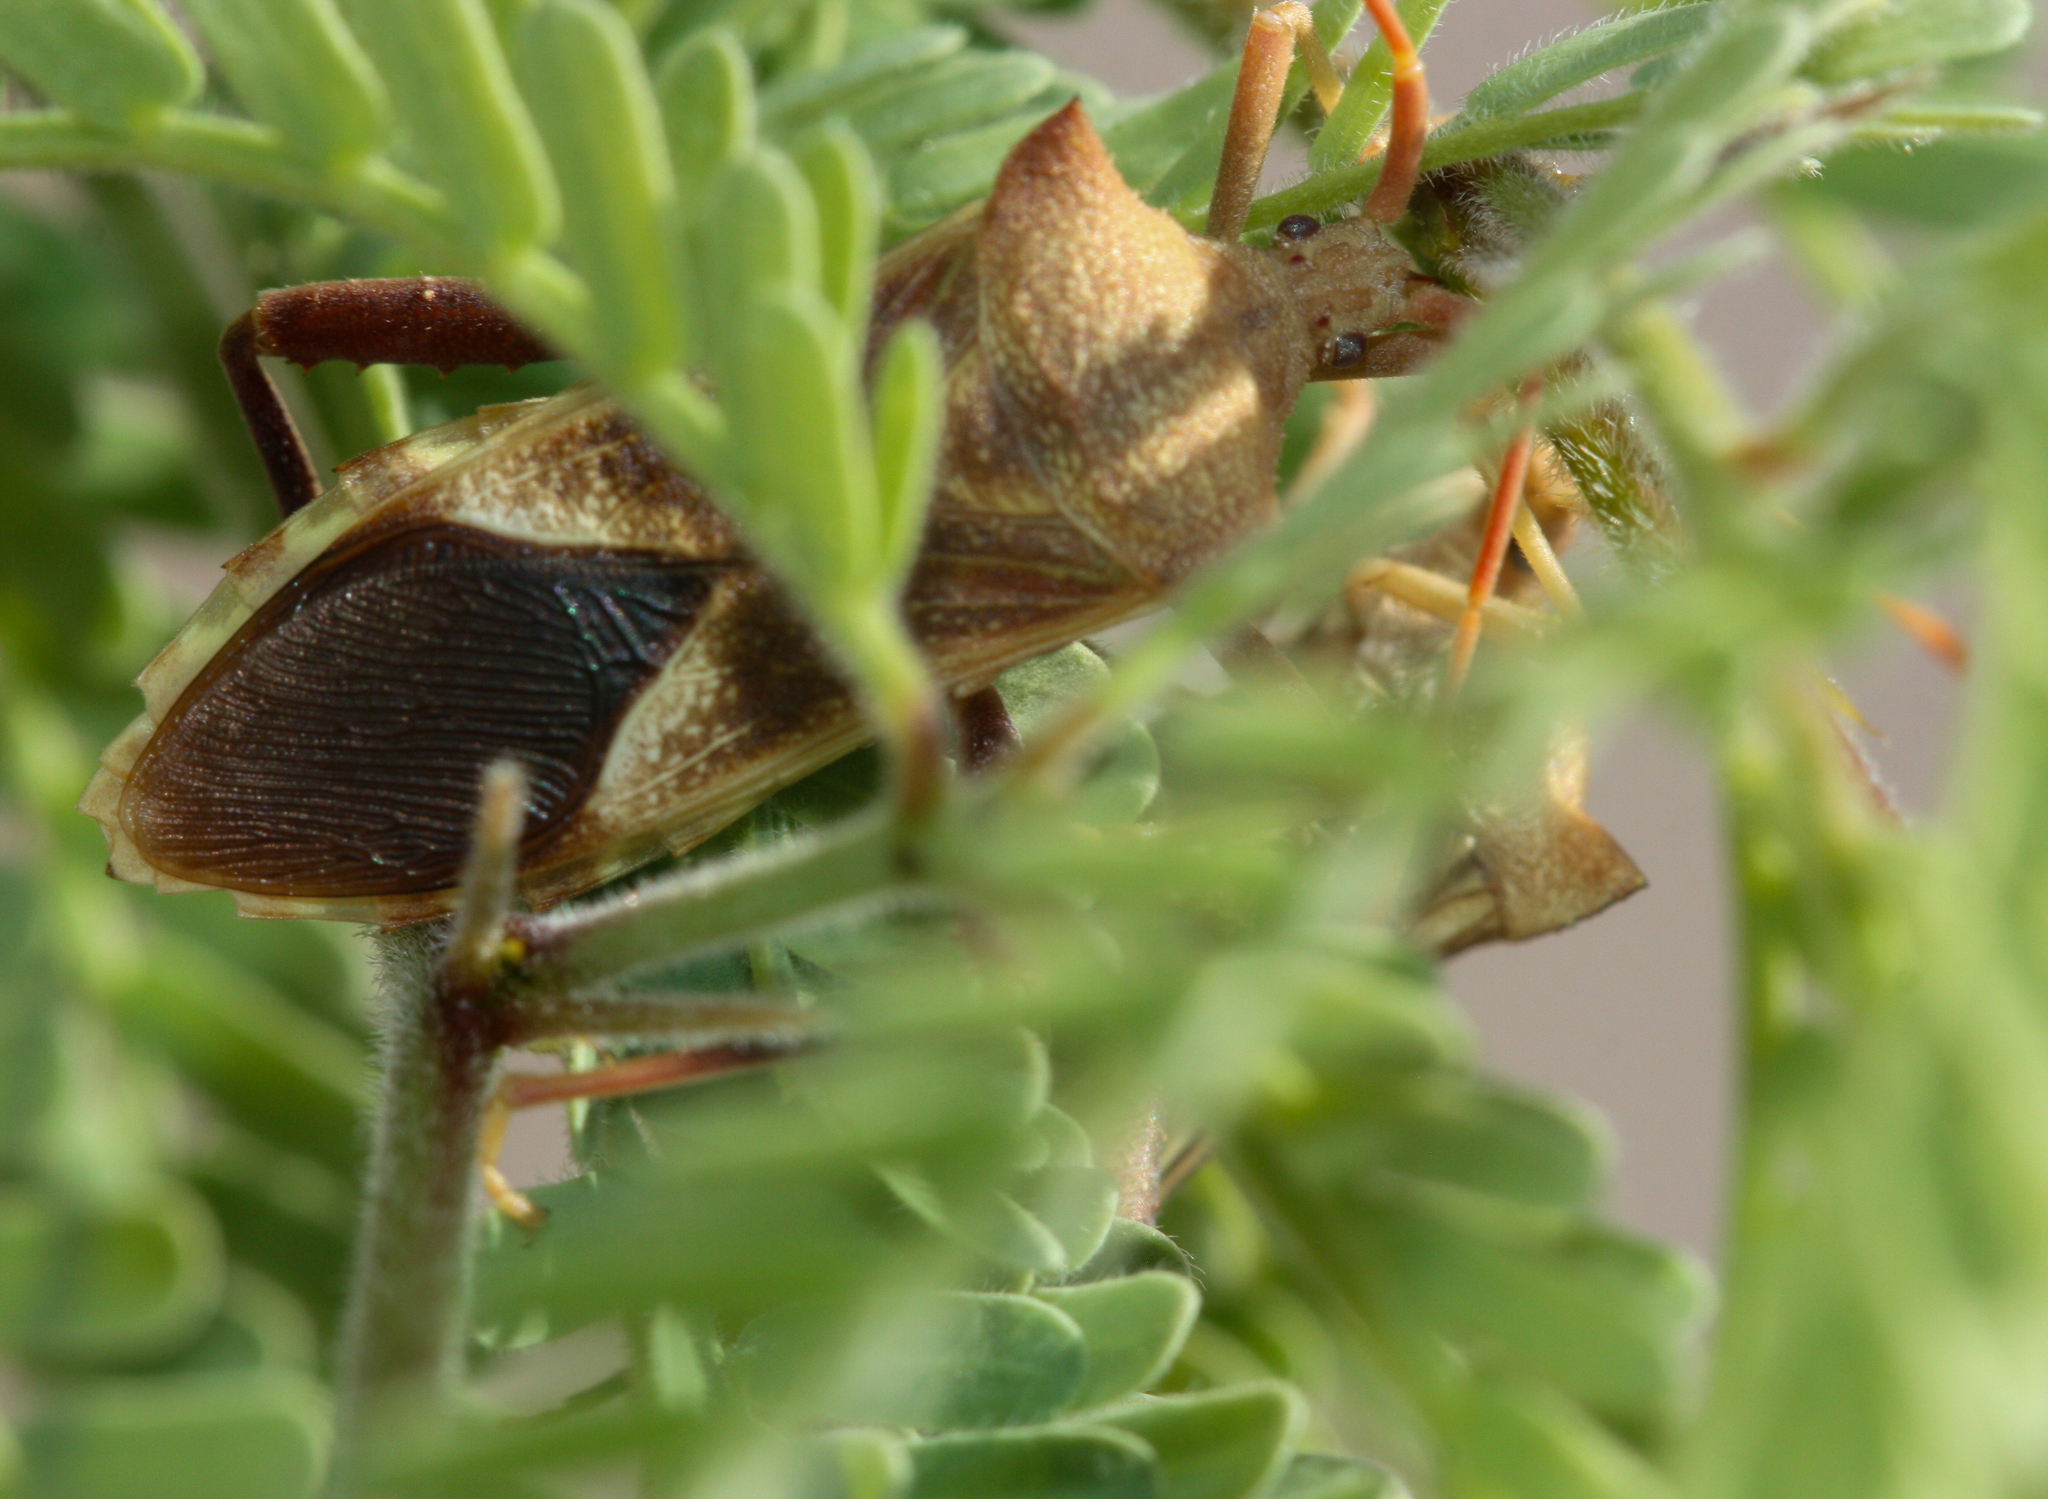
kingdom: Animalia
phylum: Arthropoda
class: Insecta
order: Hemiptera
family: Coreidae
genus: Mozena
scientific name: Mozena arizonensis
